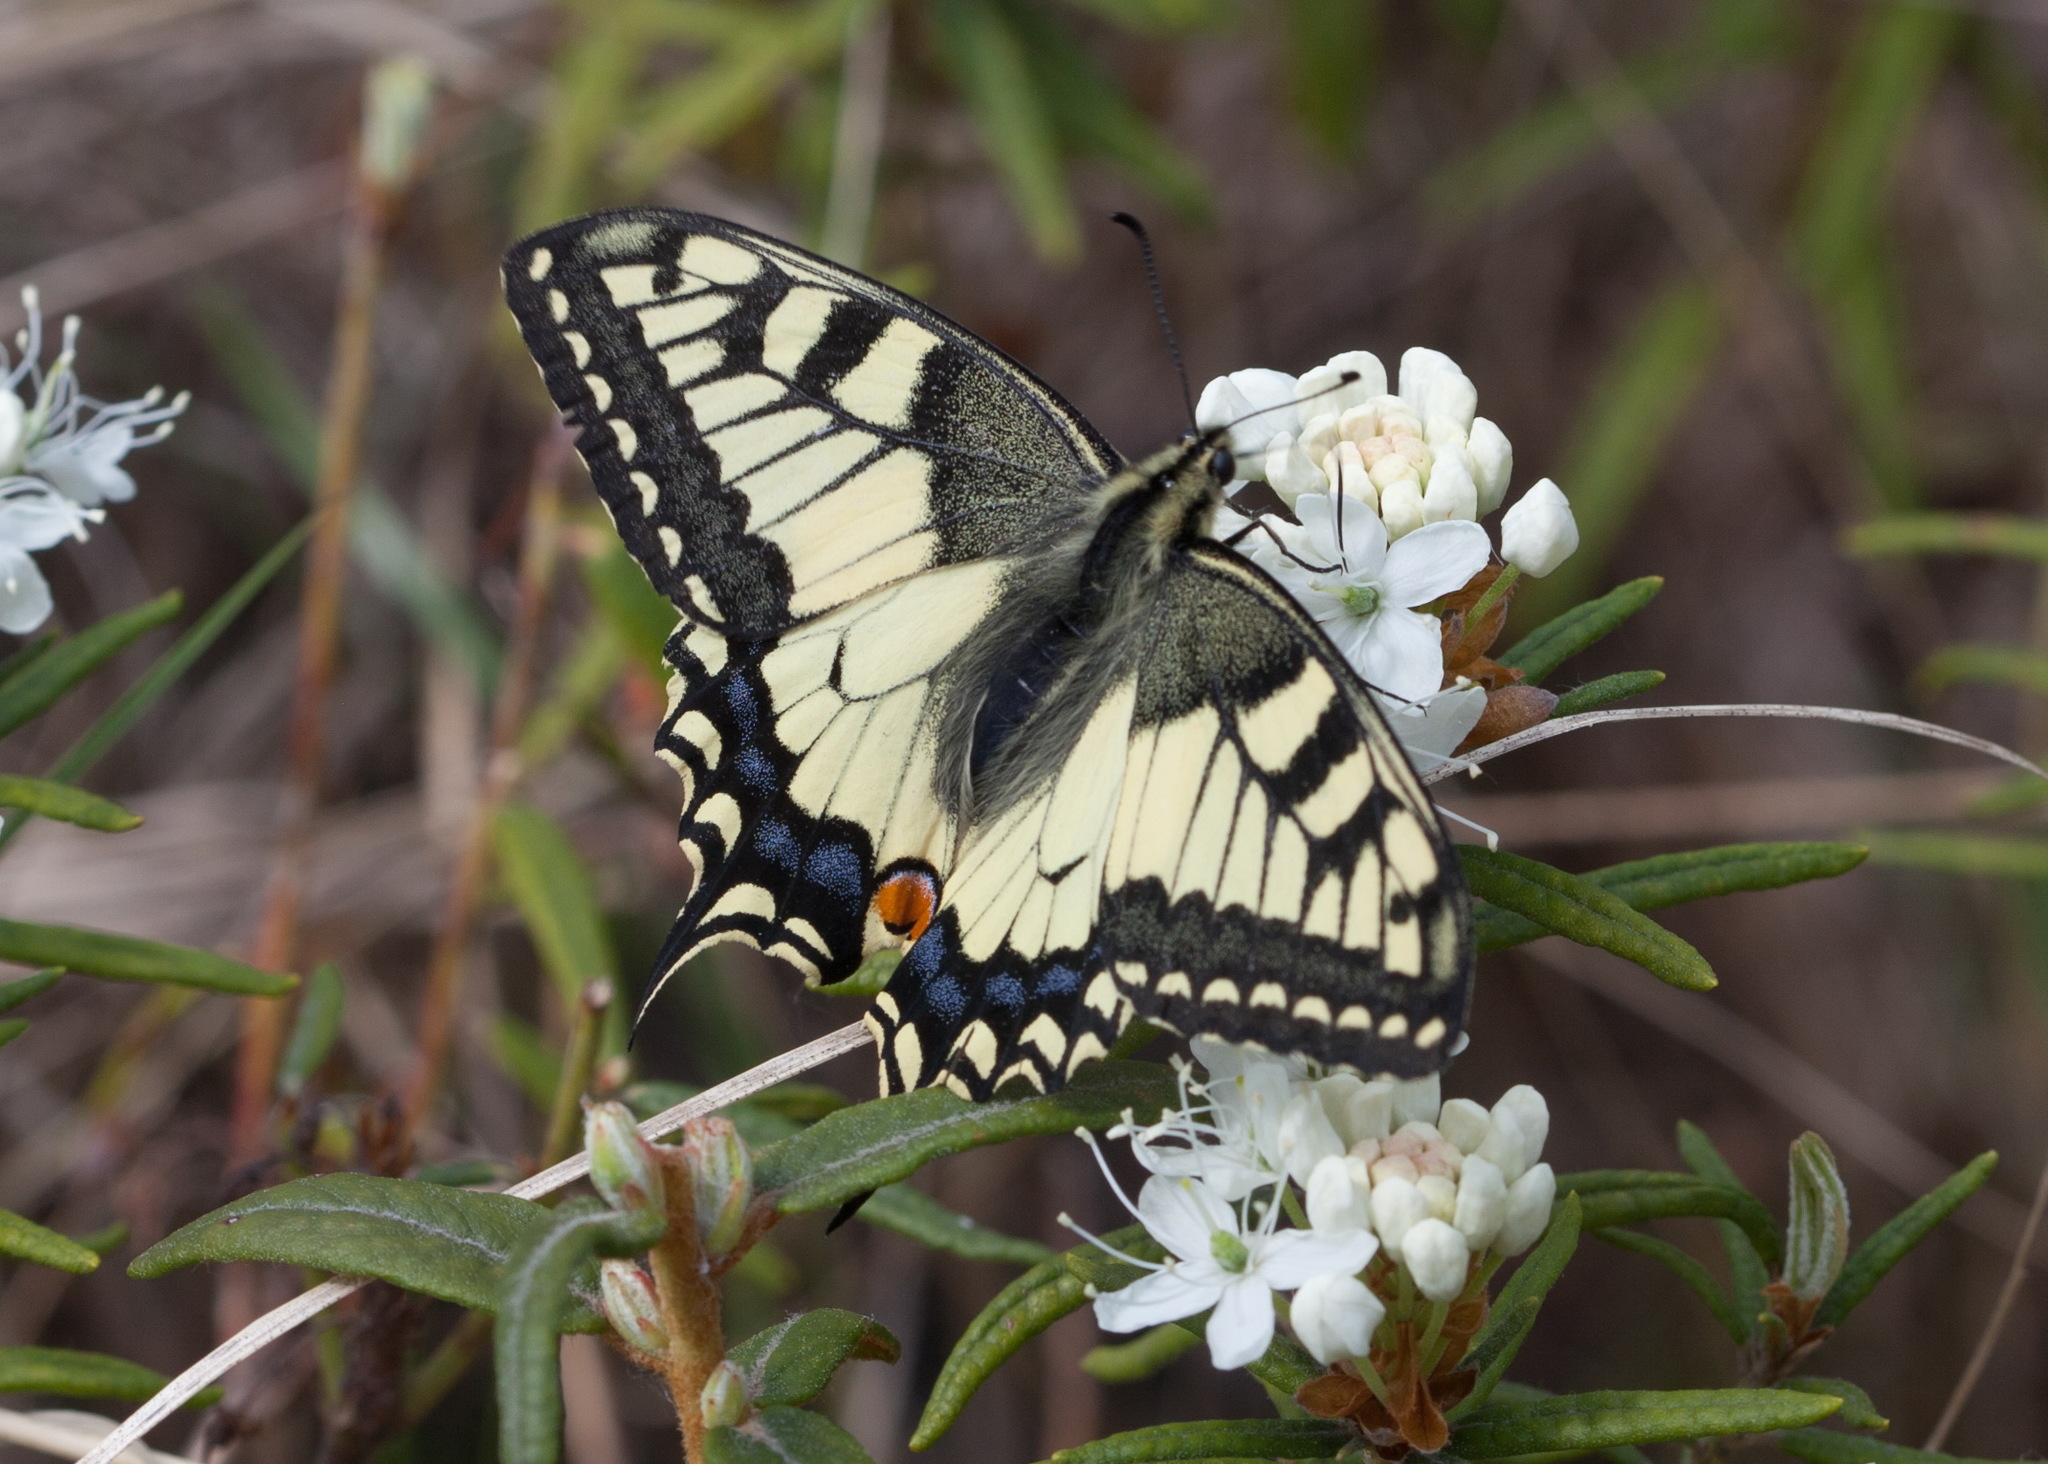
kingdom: Animalia
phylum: Arthropoda
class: Insecta
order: Lepidoptera
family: Papilionidae
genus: Papilio
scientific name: Papilio machaon
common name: Swallowtail
